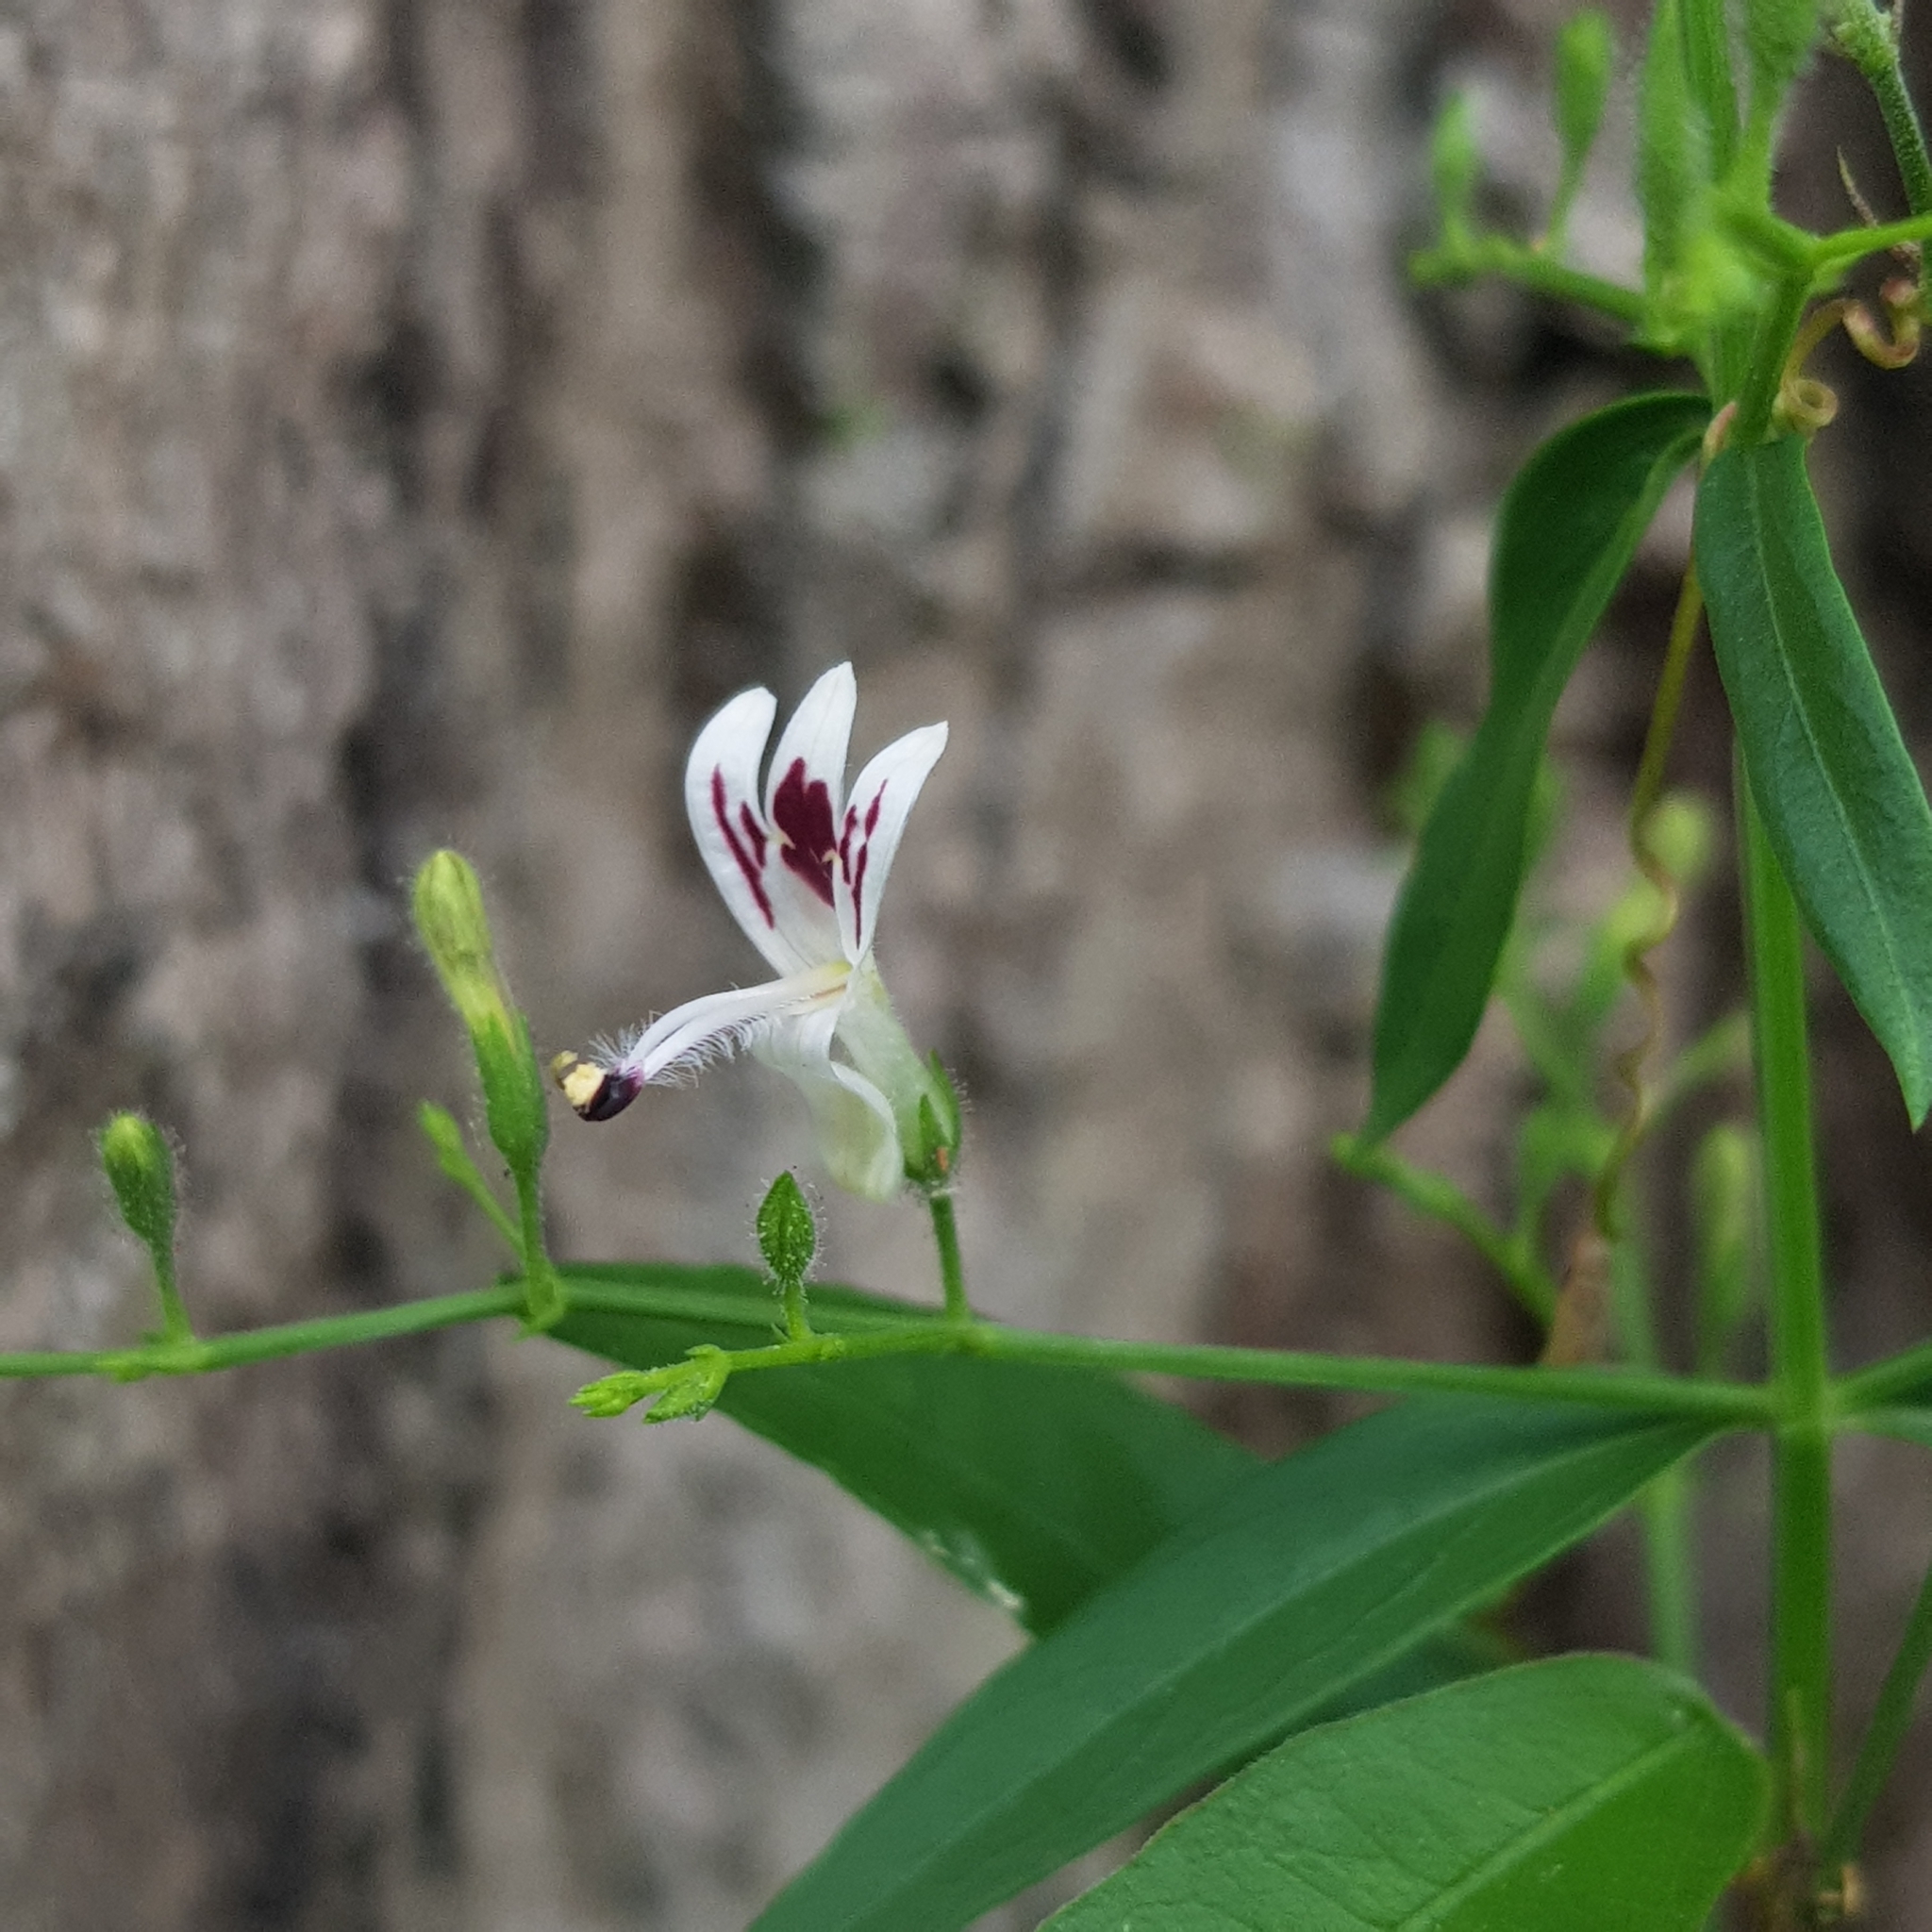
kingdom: Plantae
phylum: Tracheophyta
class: Magnoliopsida
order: Lamiales
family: Acanthaceae
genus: Andrographis
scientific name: Andrographis paniculata
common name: Green chireta
